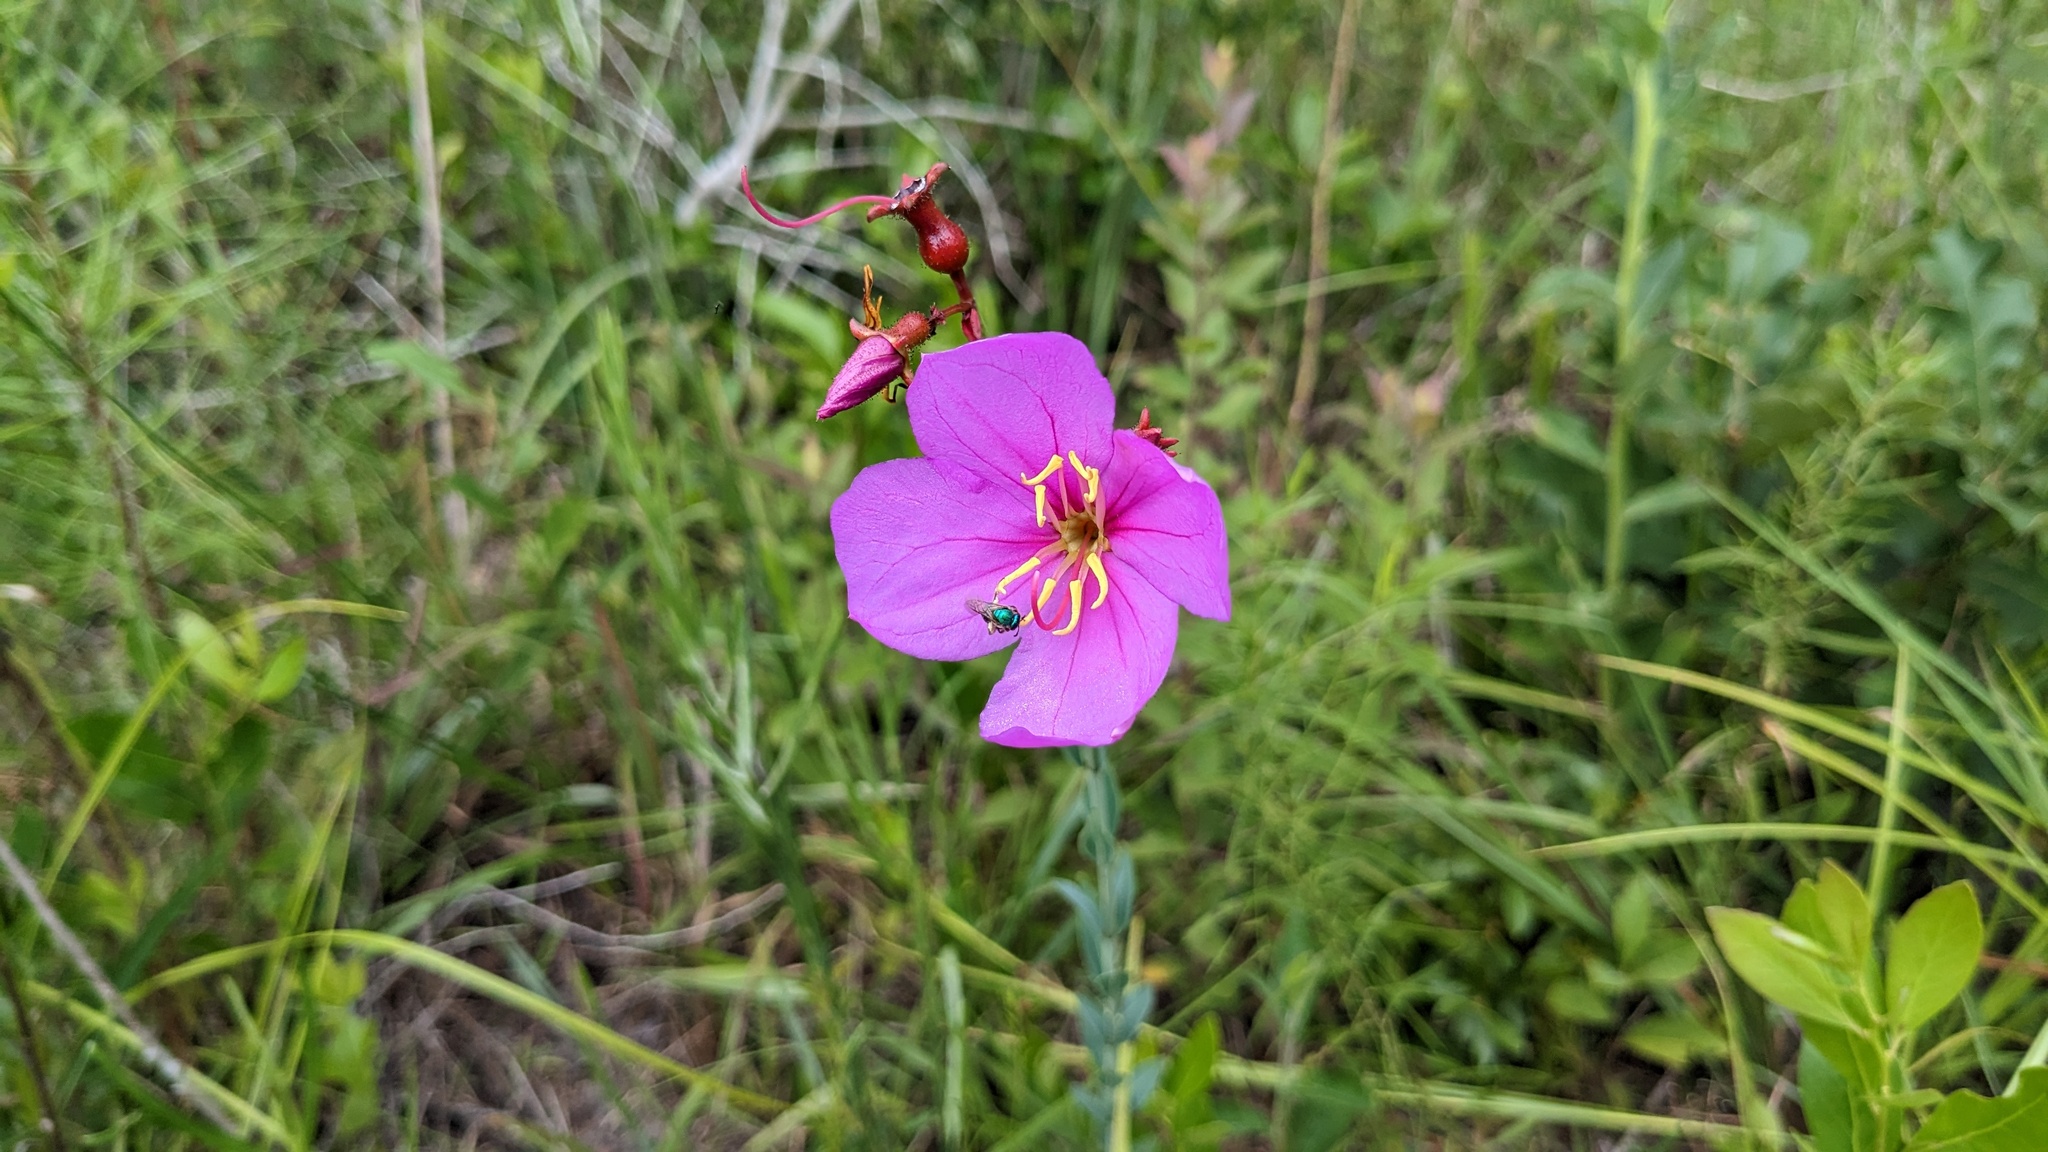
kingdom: Plantae
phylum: Tracheophyta
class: Magnoliopsida
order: Myrtales
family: Melastomataceae
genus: Rhexia
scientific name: Rhexia alifanus
